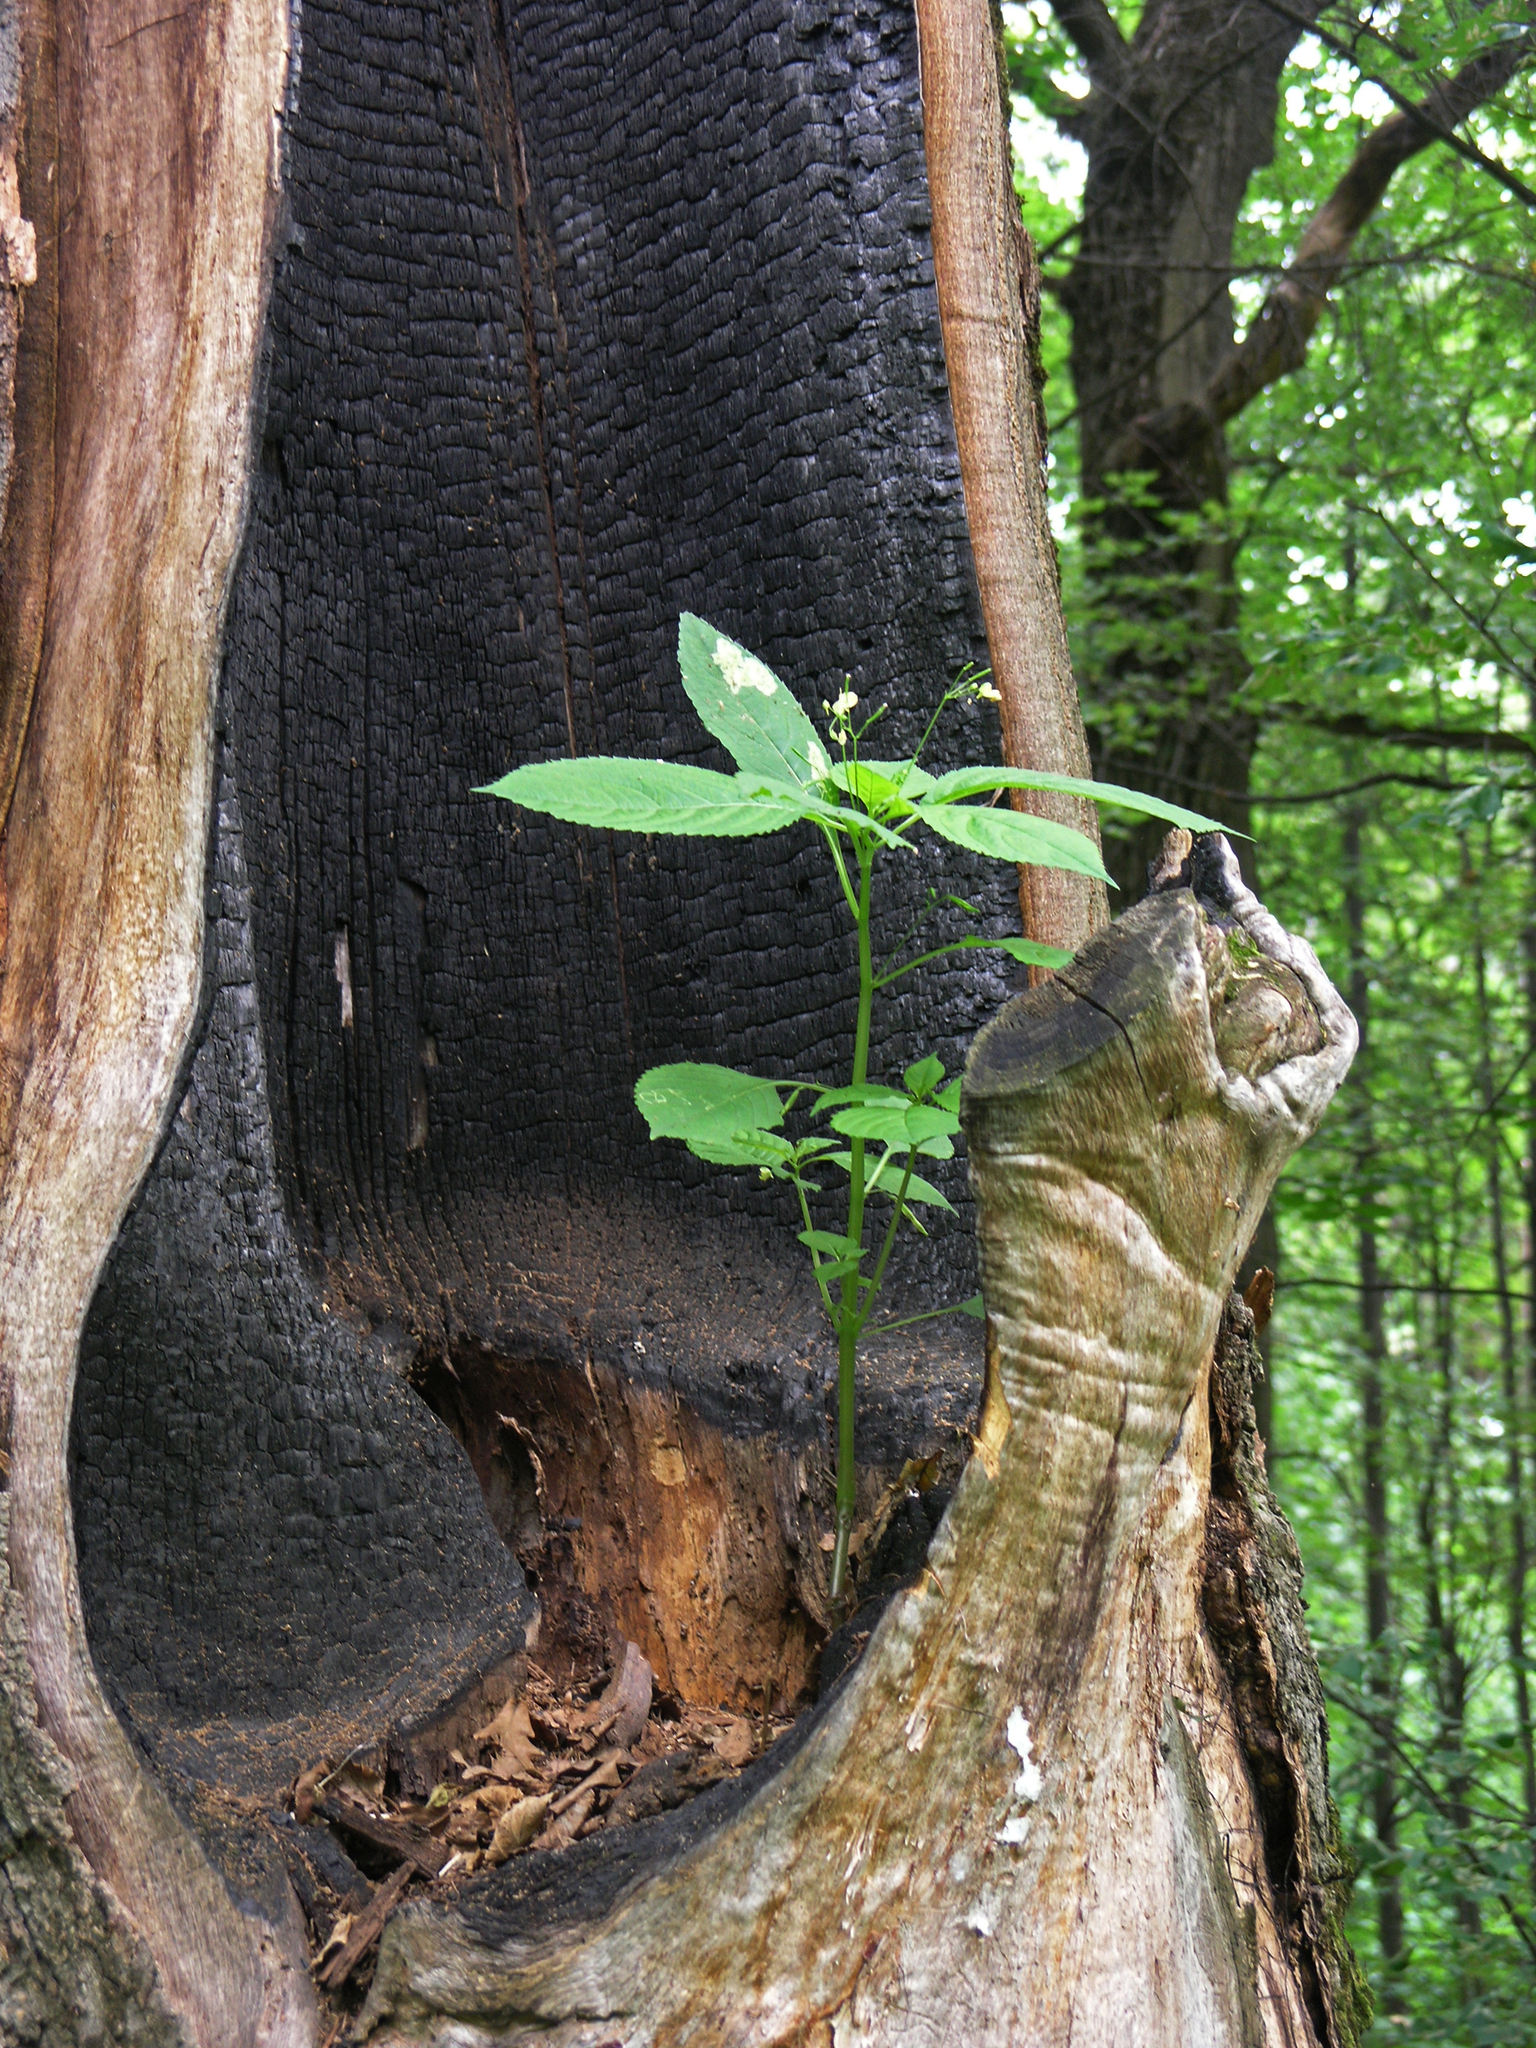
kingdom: Plantae
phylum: Tracheophyta
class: Magnoliopsida
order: Ericales
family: Balsaminaceae
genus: Impatiens
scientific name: Impatiens parviflora
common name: Small balsam
